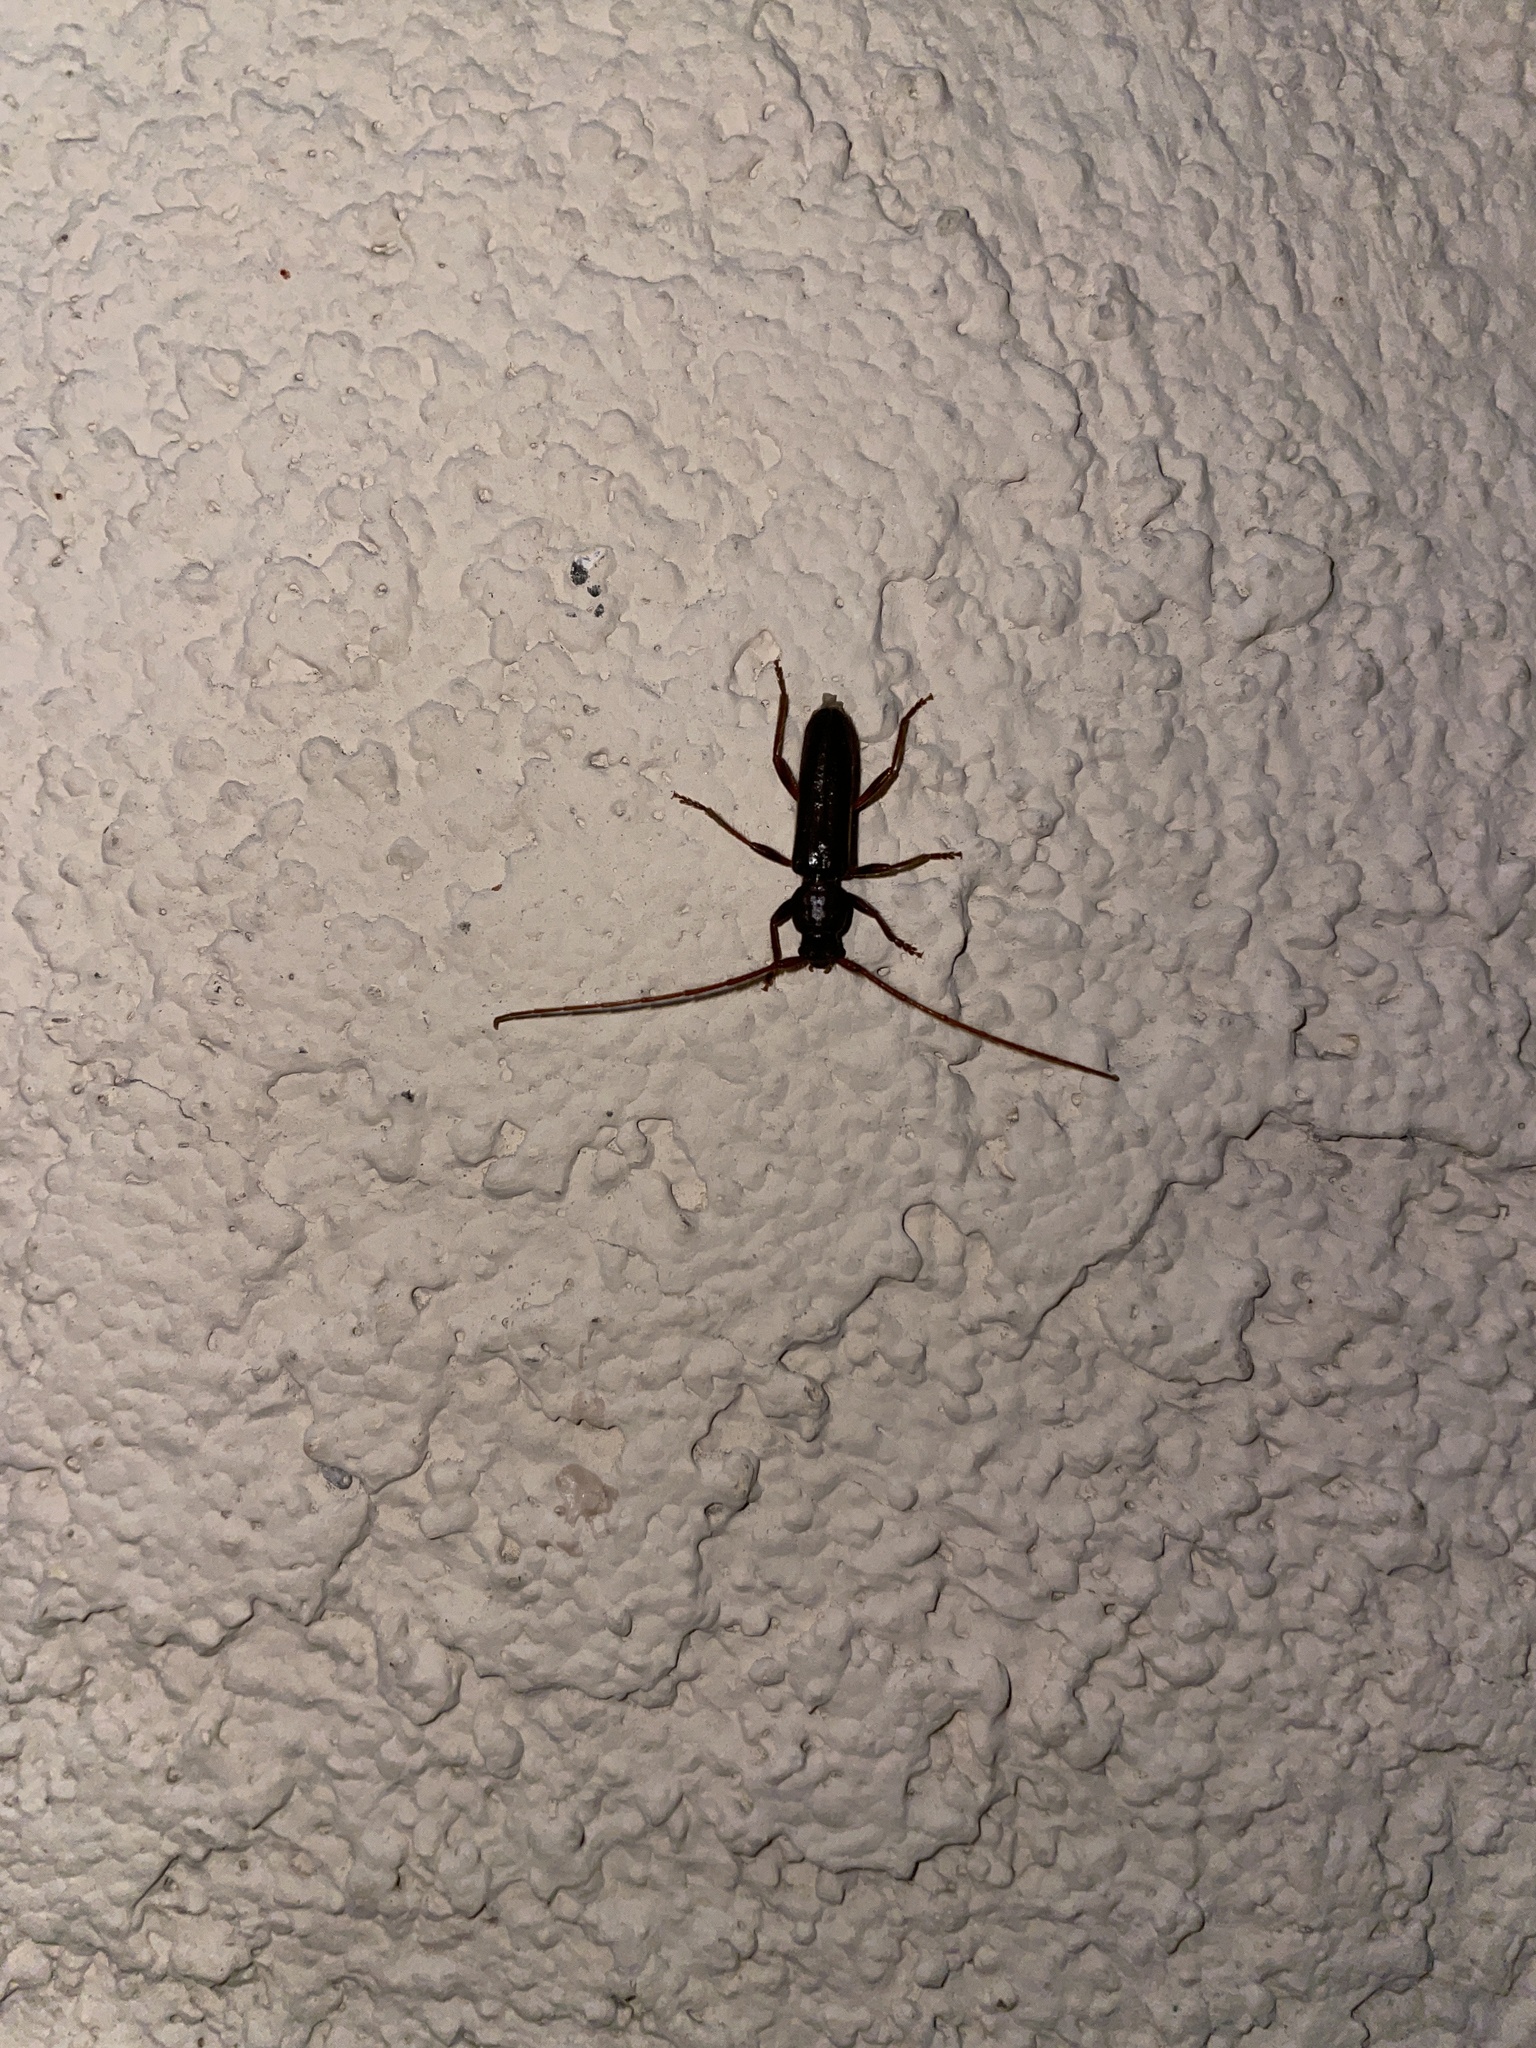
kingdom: Animalia
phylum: Arthropoda
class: Insecta
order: Coleoptera
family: Cerambycidae
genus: Paranoplium
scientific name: Paranoplium gracile
